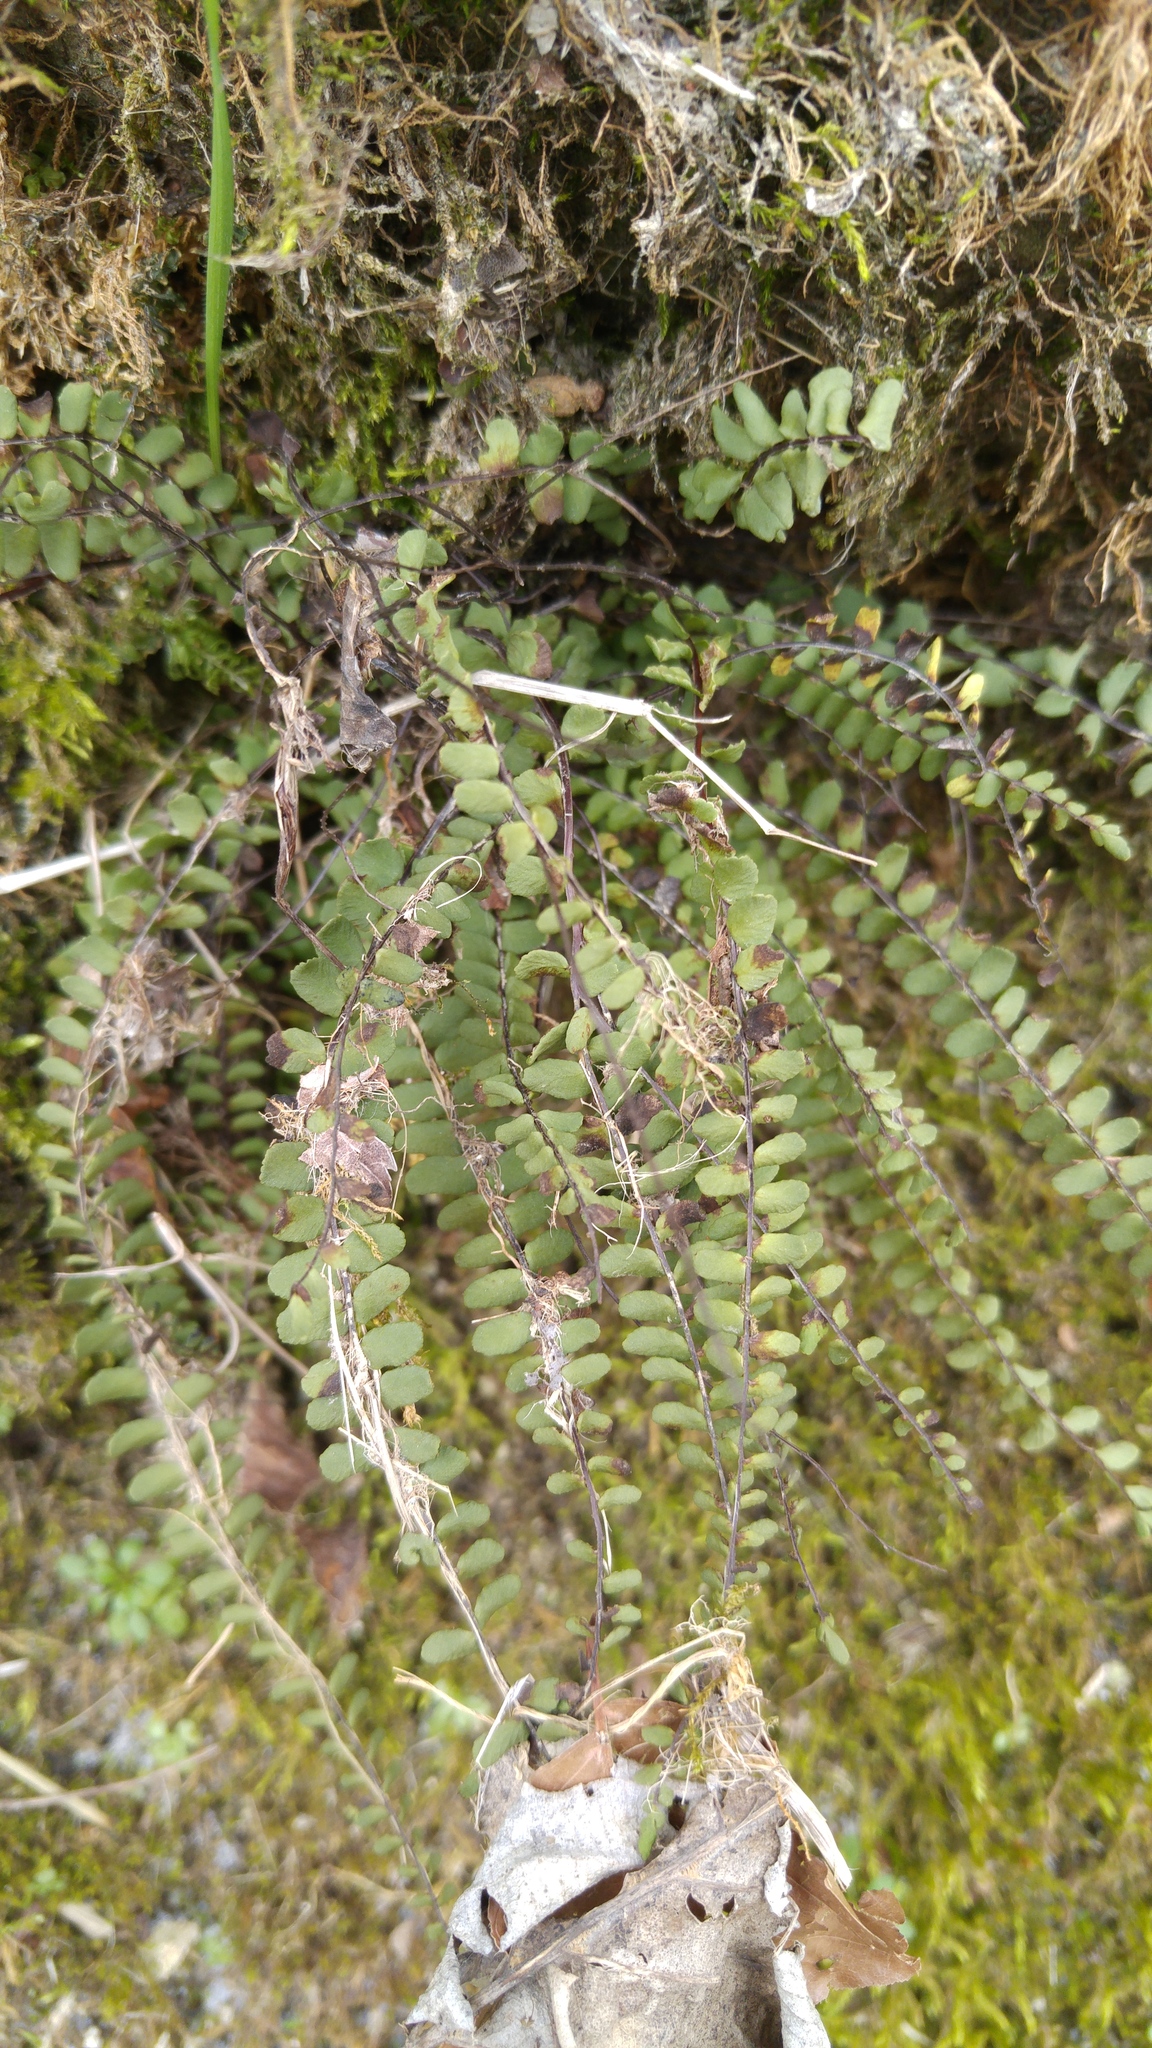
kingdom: Plantae
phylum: Tracheophyta
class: Polypodiopsida
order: Polypodiales
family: Aspleniaceae
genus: Asplenium
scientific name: Asplenium trichomanes
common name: Maidenhair spleenwort
